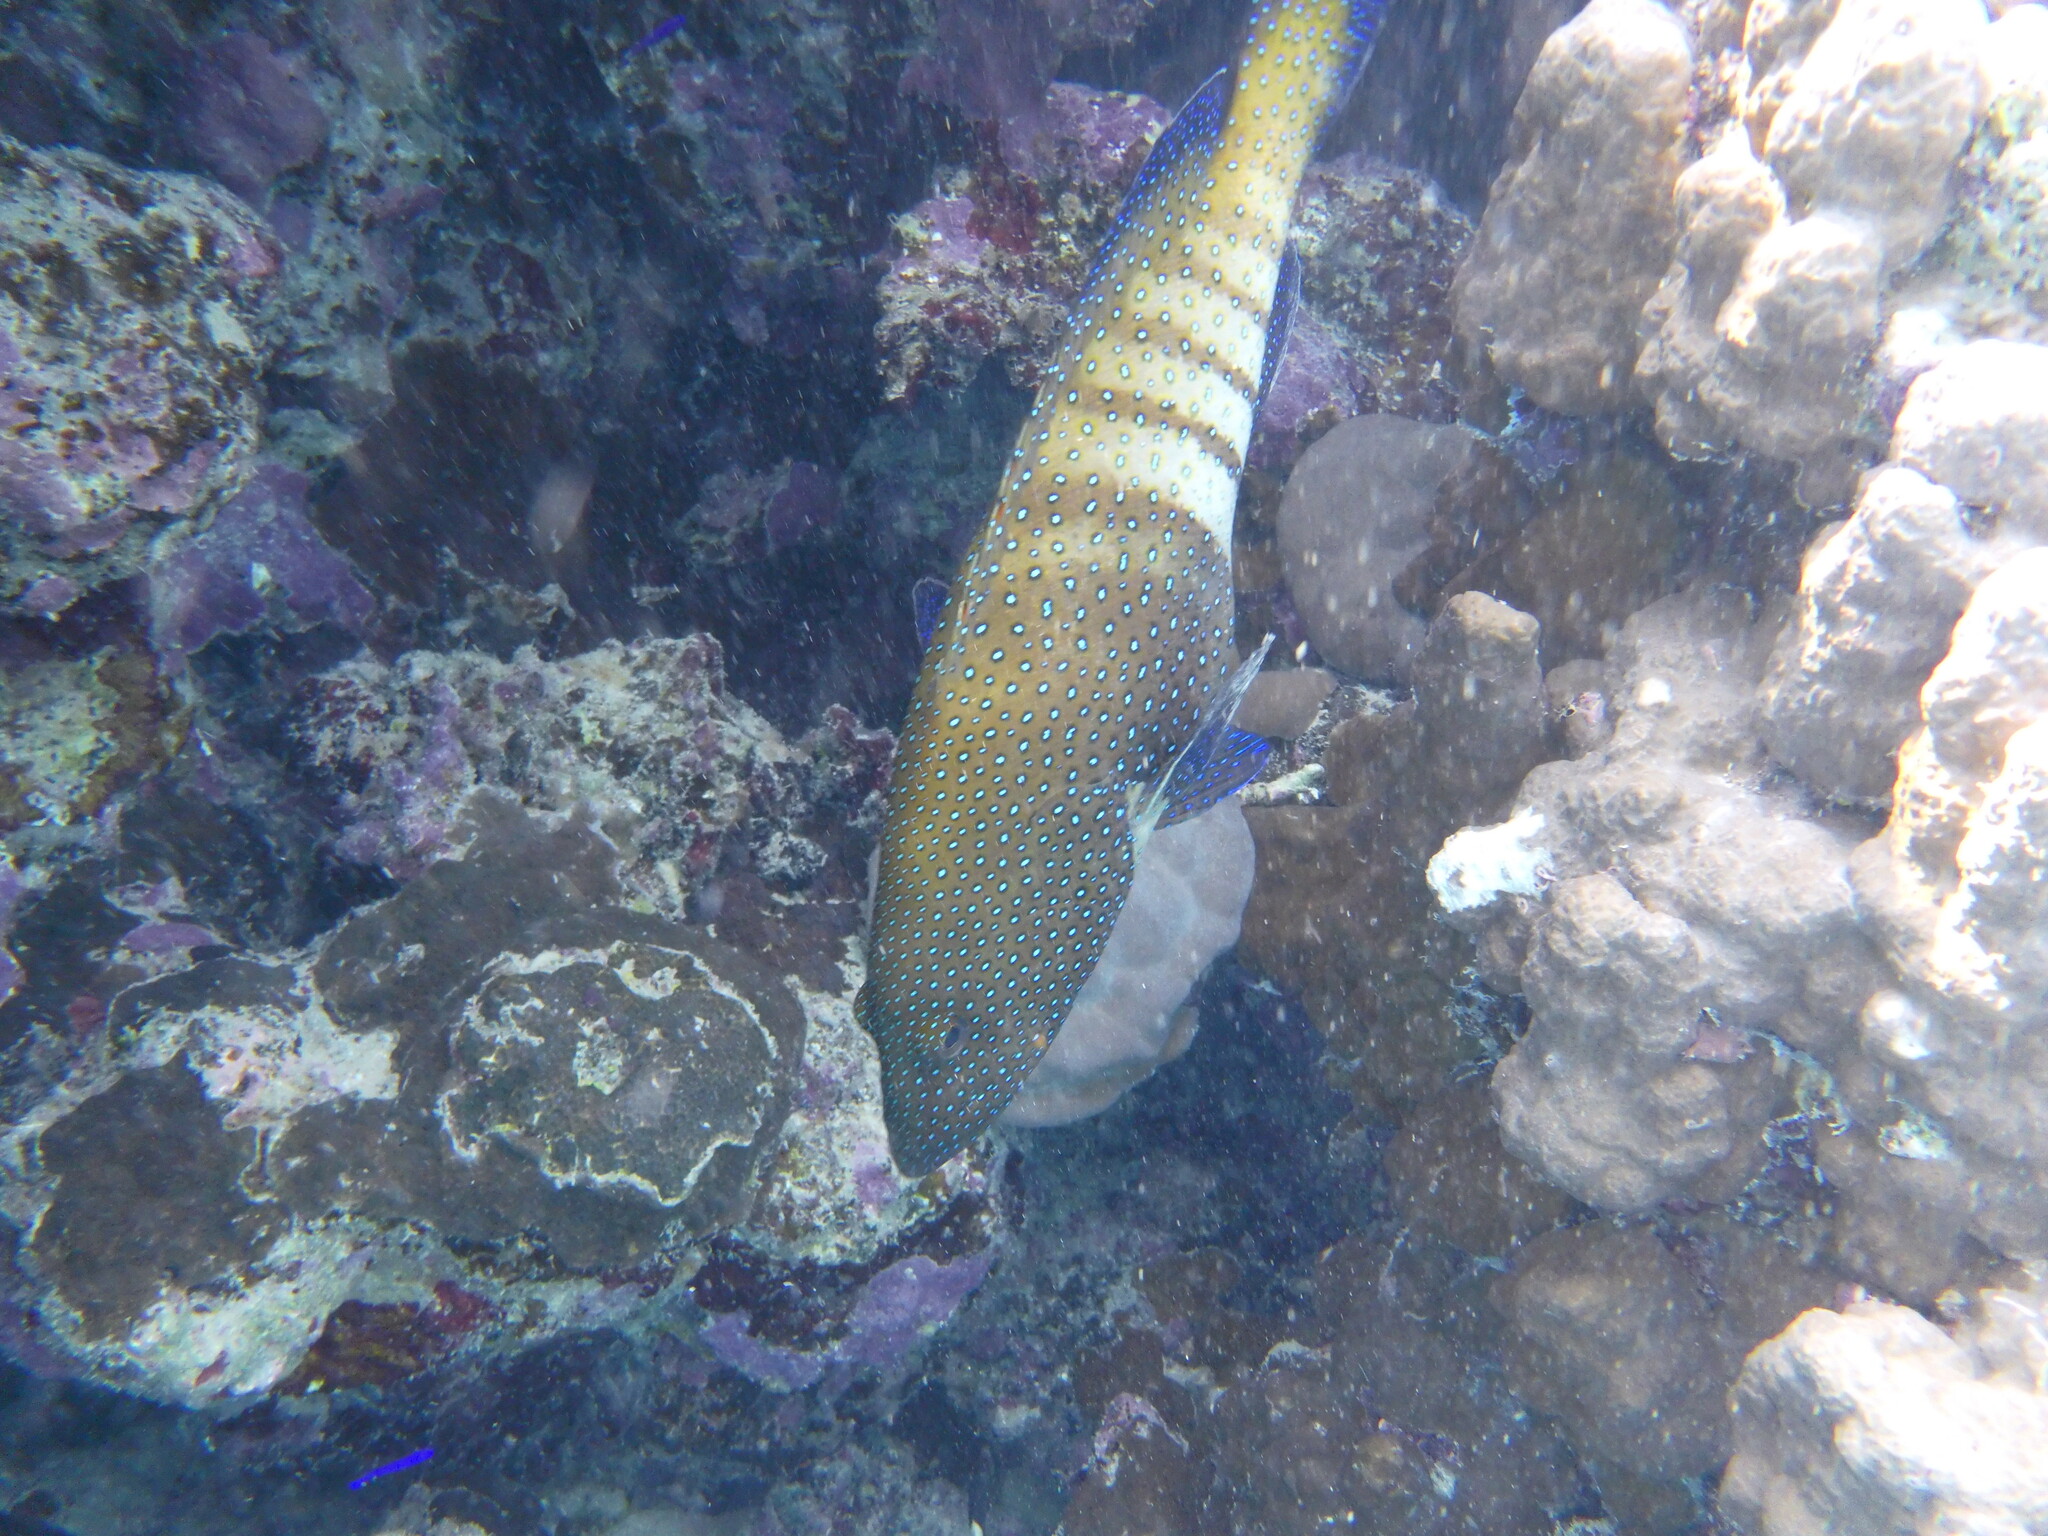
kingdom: Animalia
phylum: Chordata
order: Perciformes
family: Serranidae
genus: Cephalopholis
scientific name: Cephalopholis argus
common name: Peacock grouper
